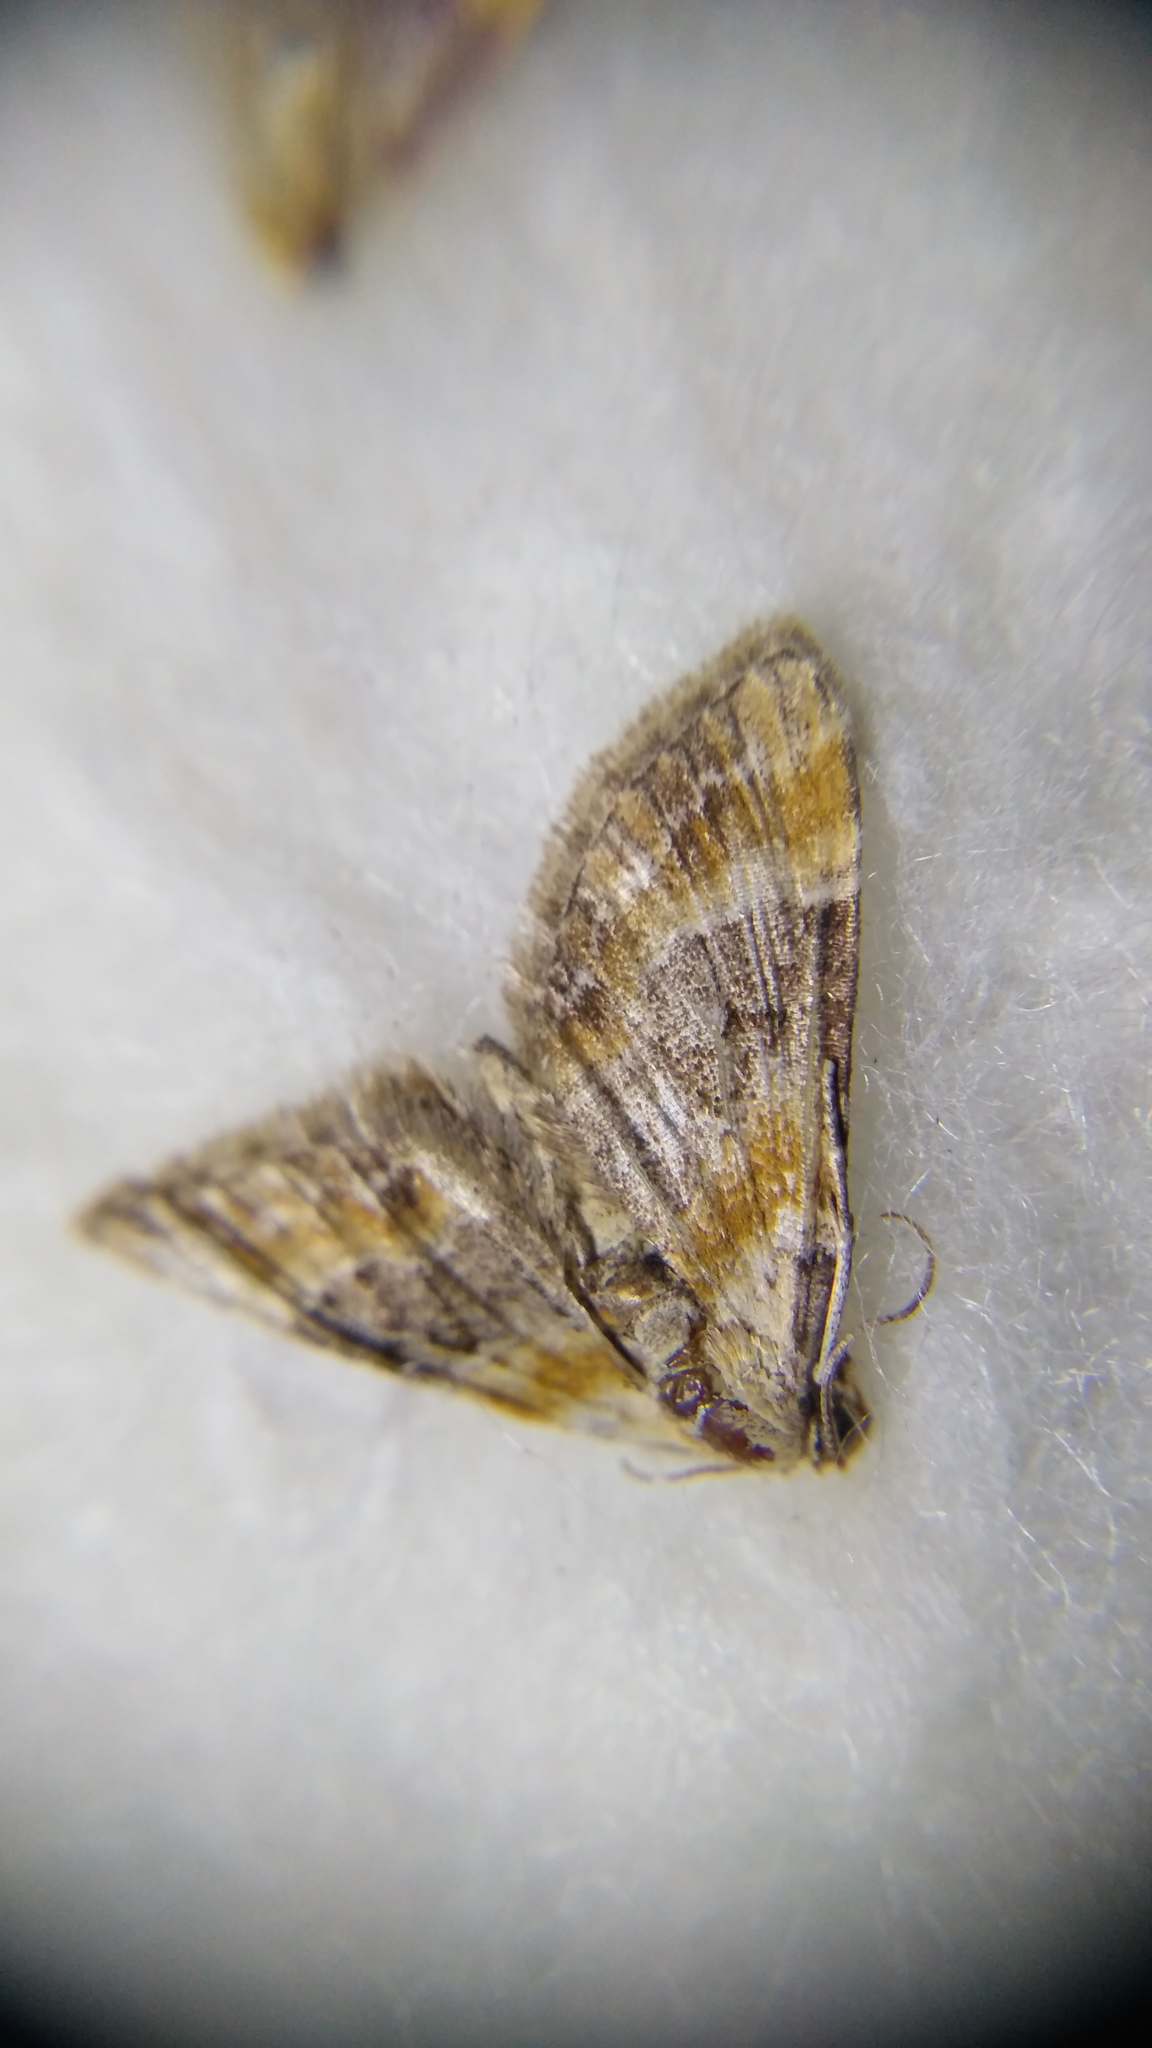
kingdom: Animalia
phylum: Arthropoda
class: Insecta
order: Lepidoptera
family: Geometridae
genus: Eupithecia
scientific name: Eupithecia linariata
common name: Toadflax pug
